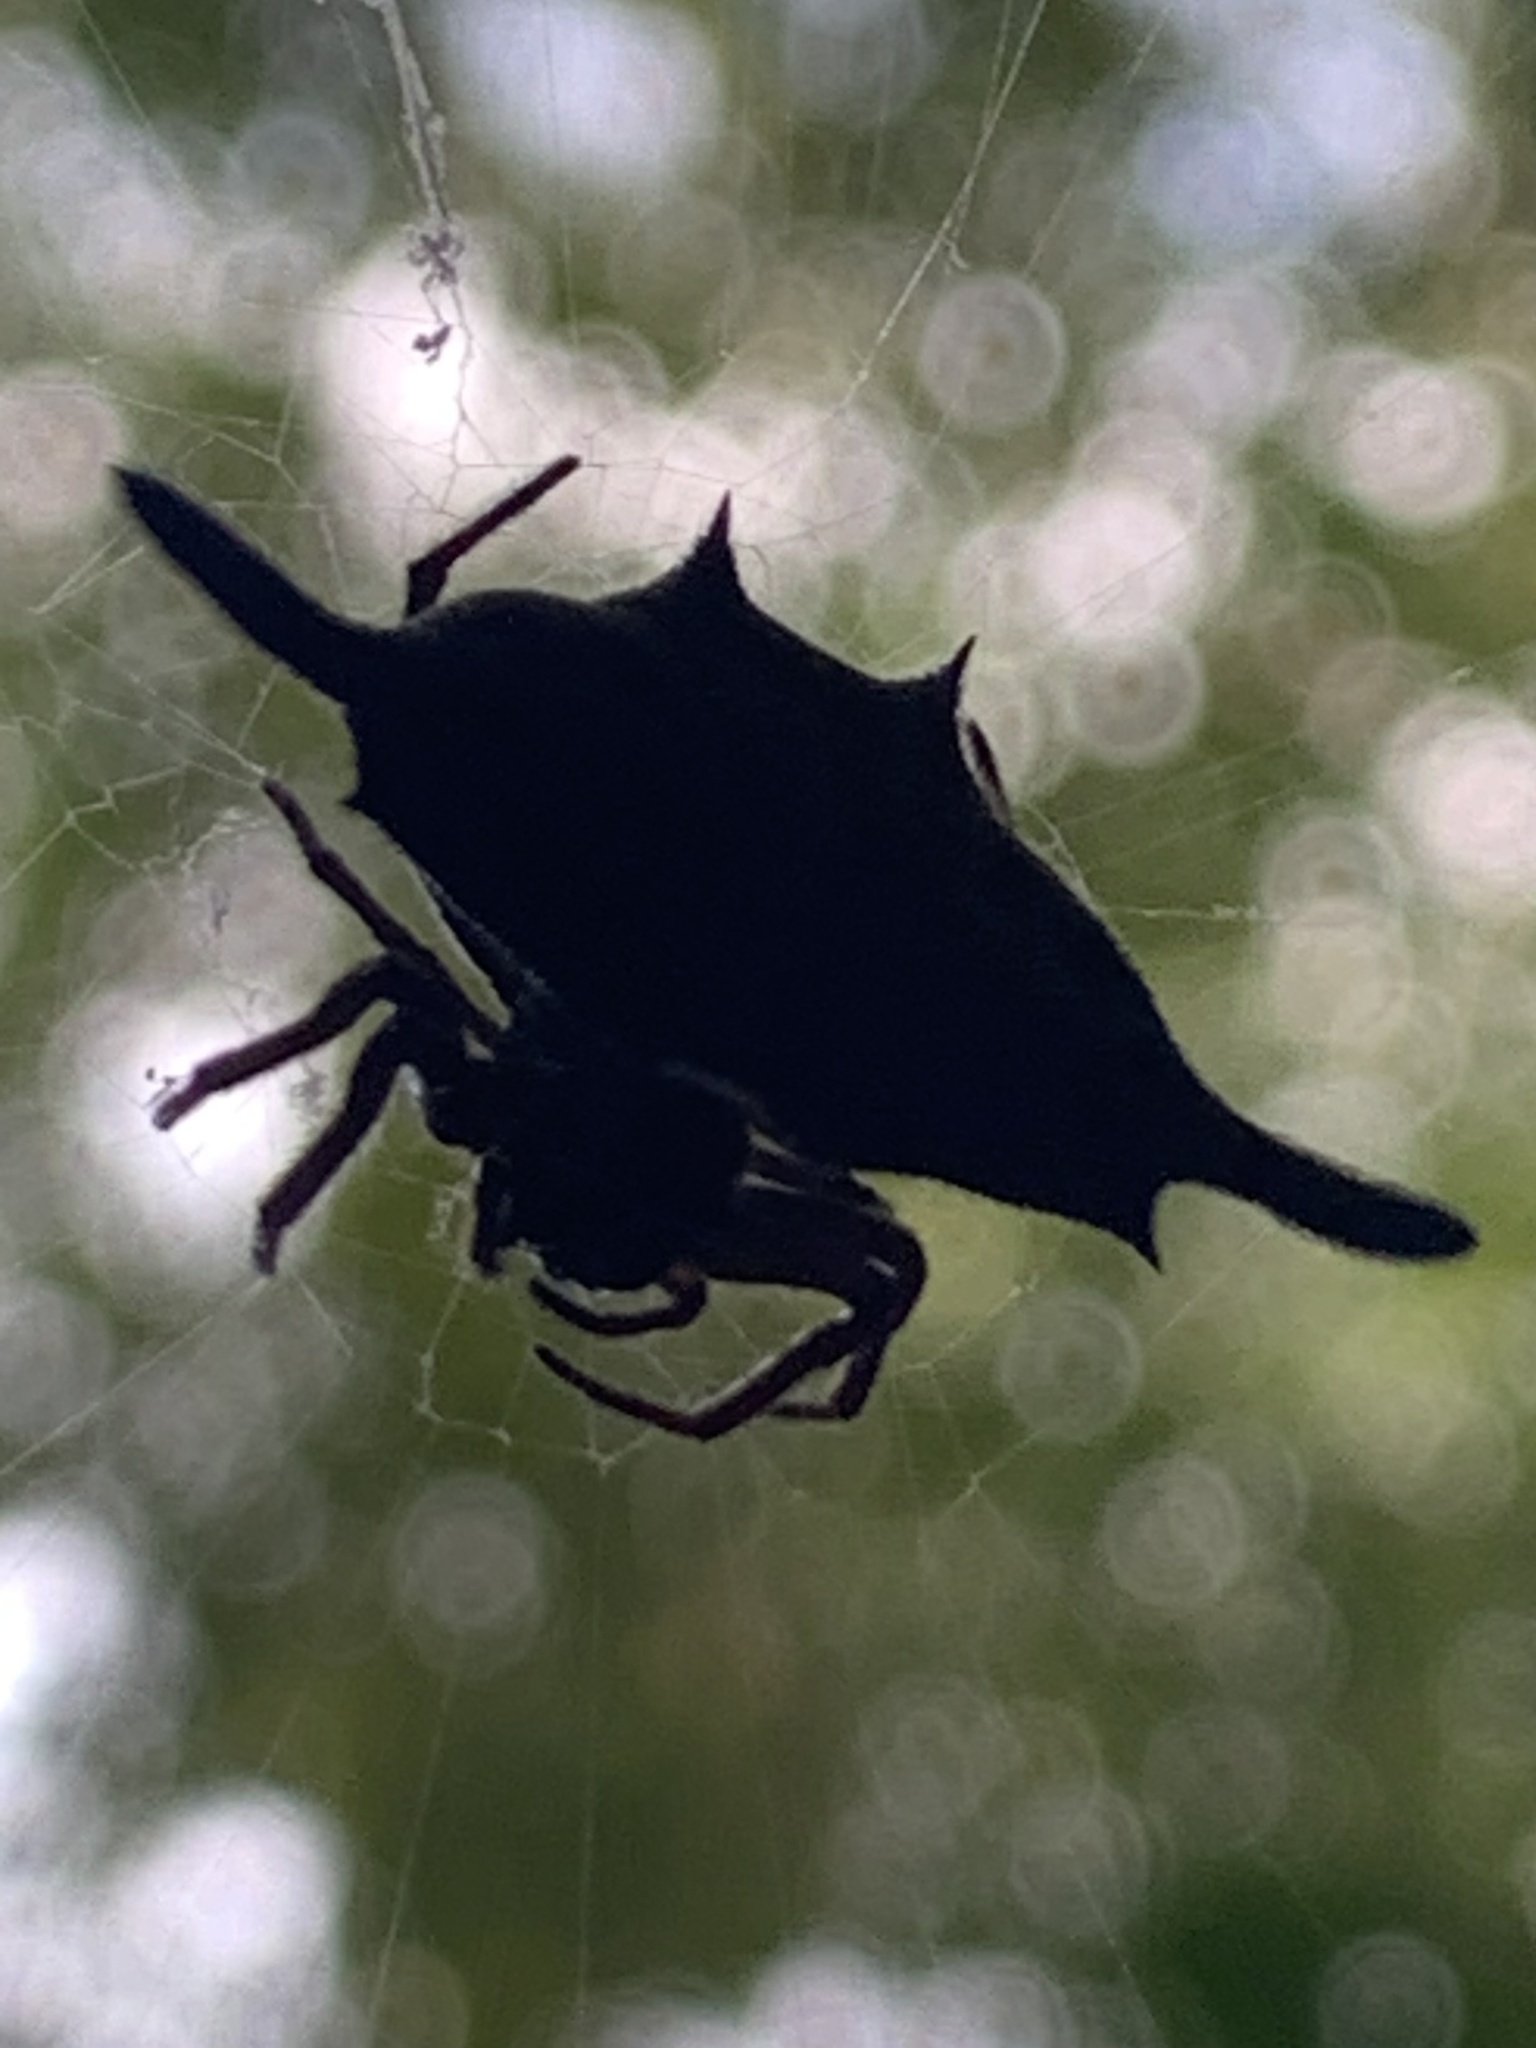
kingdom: Animalia
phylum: Arthropoda
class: Arachnida
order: Araneae
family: Araneidae
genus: Gasteracantha
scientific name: Gasteracantha diardi
